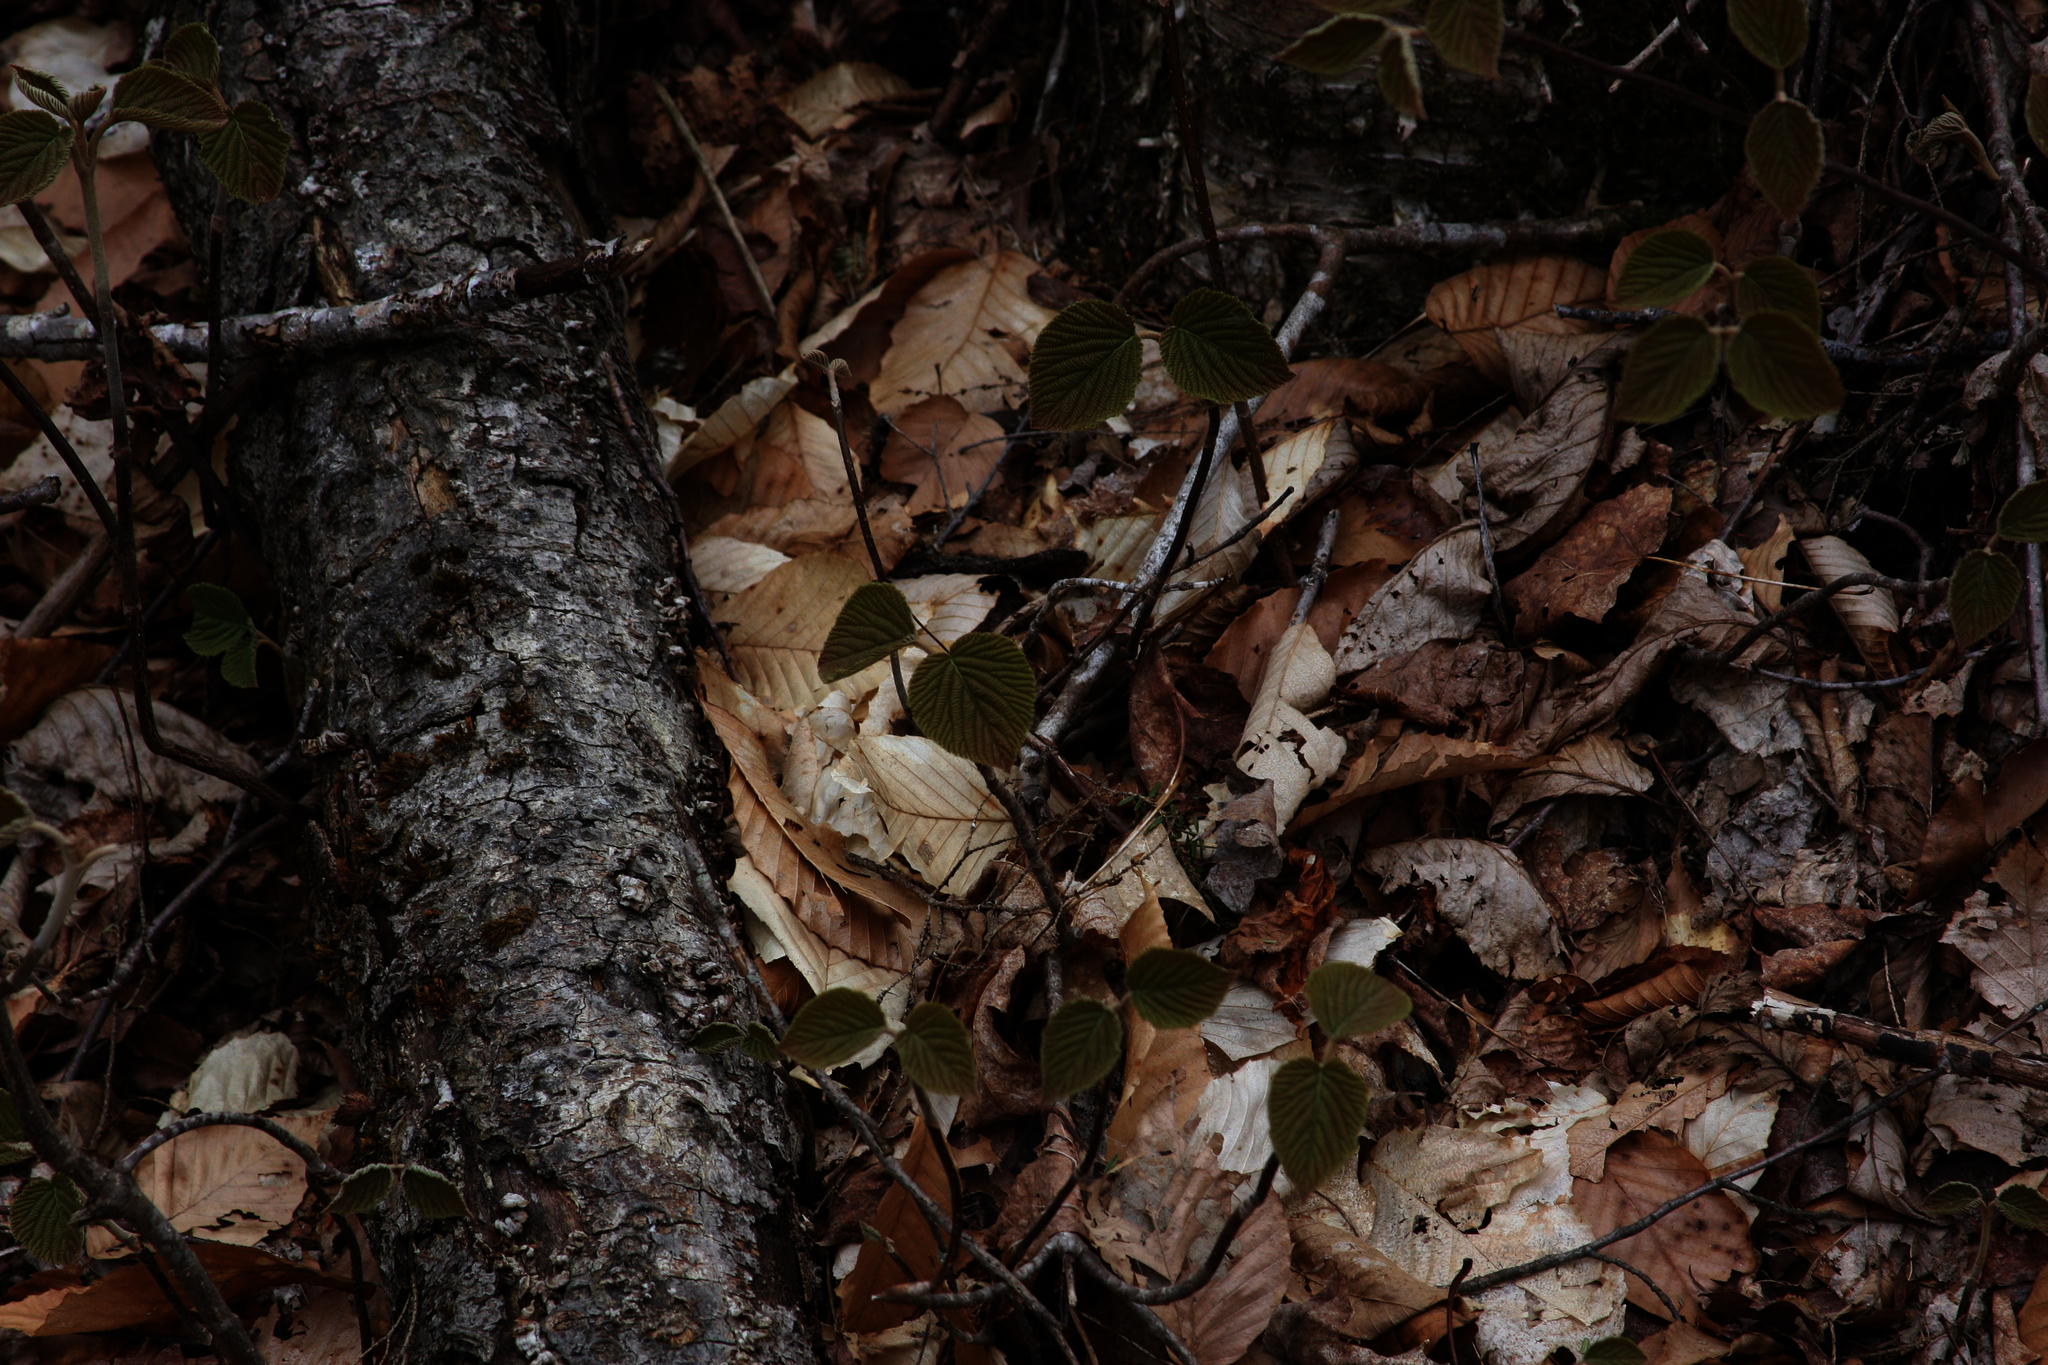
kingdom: Plantae
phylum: Tracheophyta
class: Magnoliopsida
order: Dipsacales
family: Viburnaceae
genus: Viburnum
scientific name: Viburnum lantanoides
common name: Hobblebush
